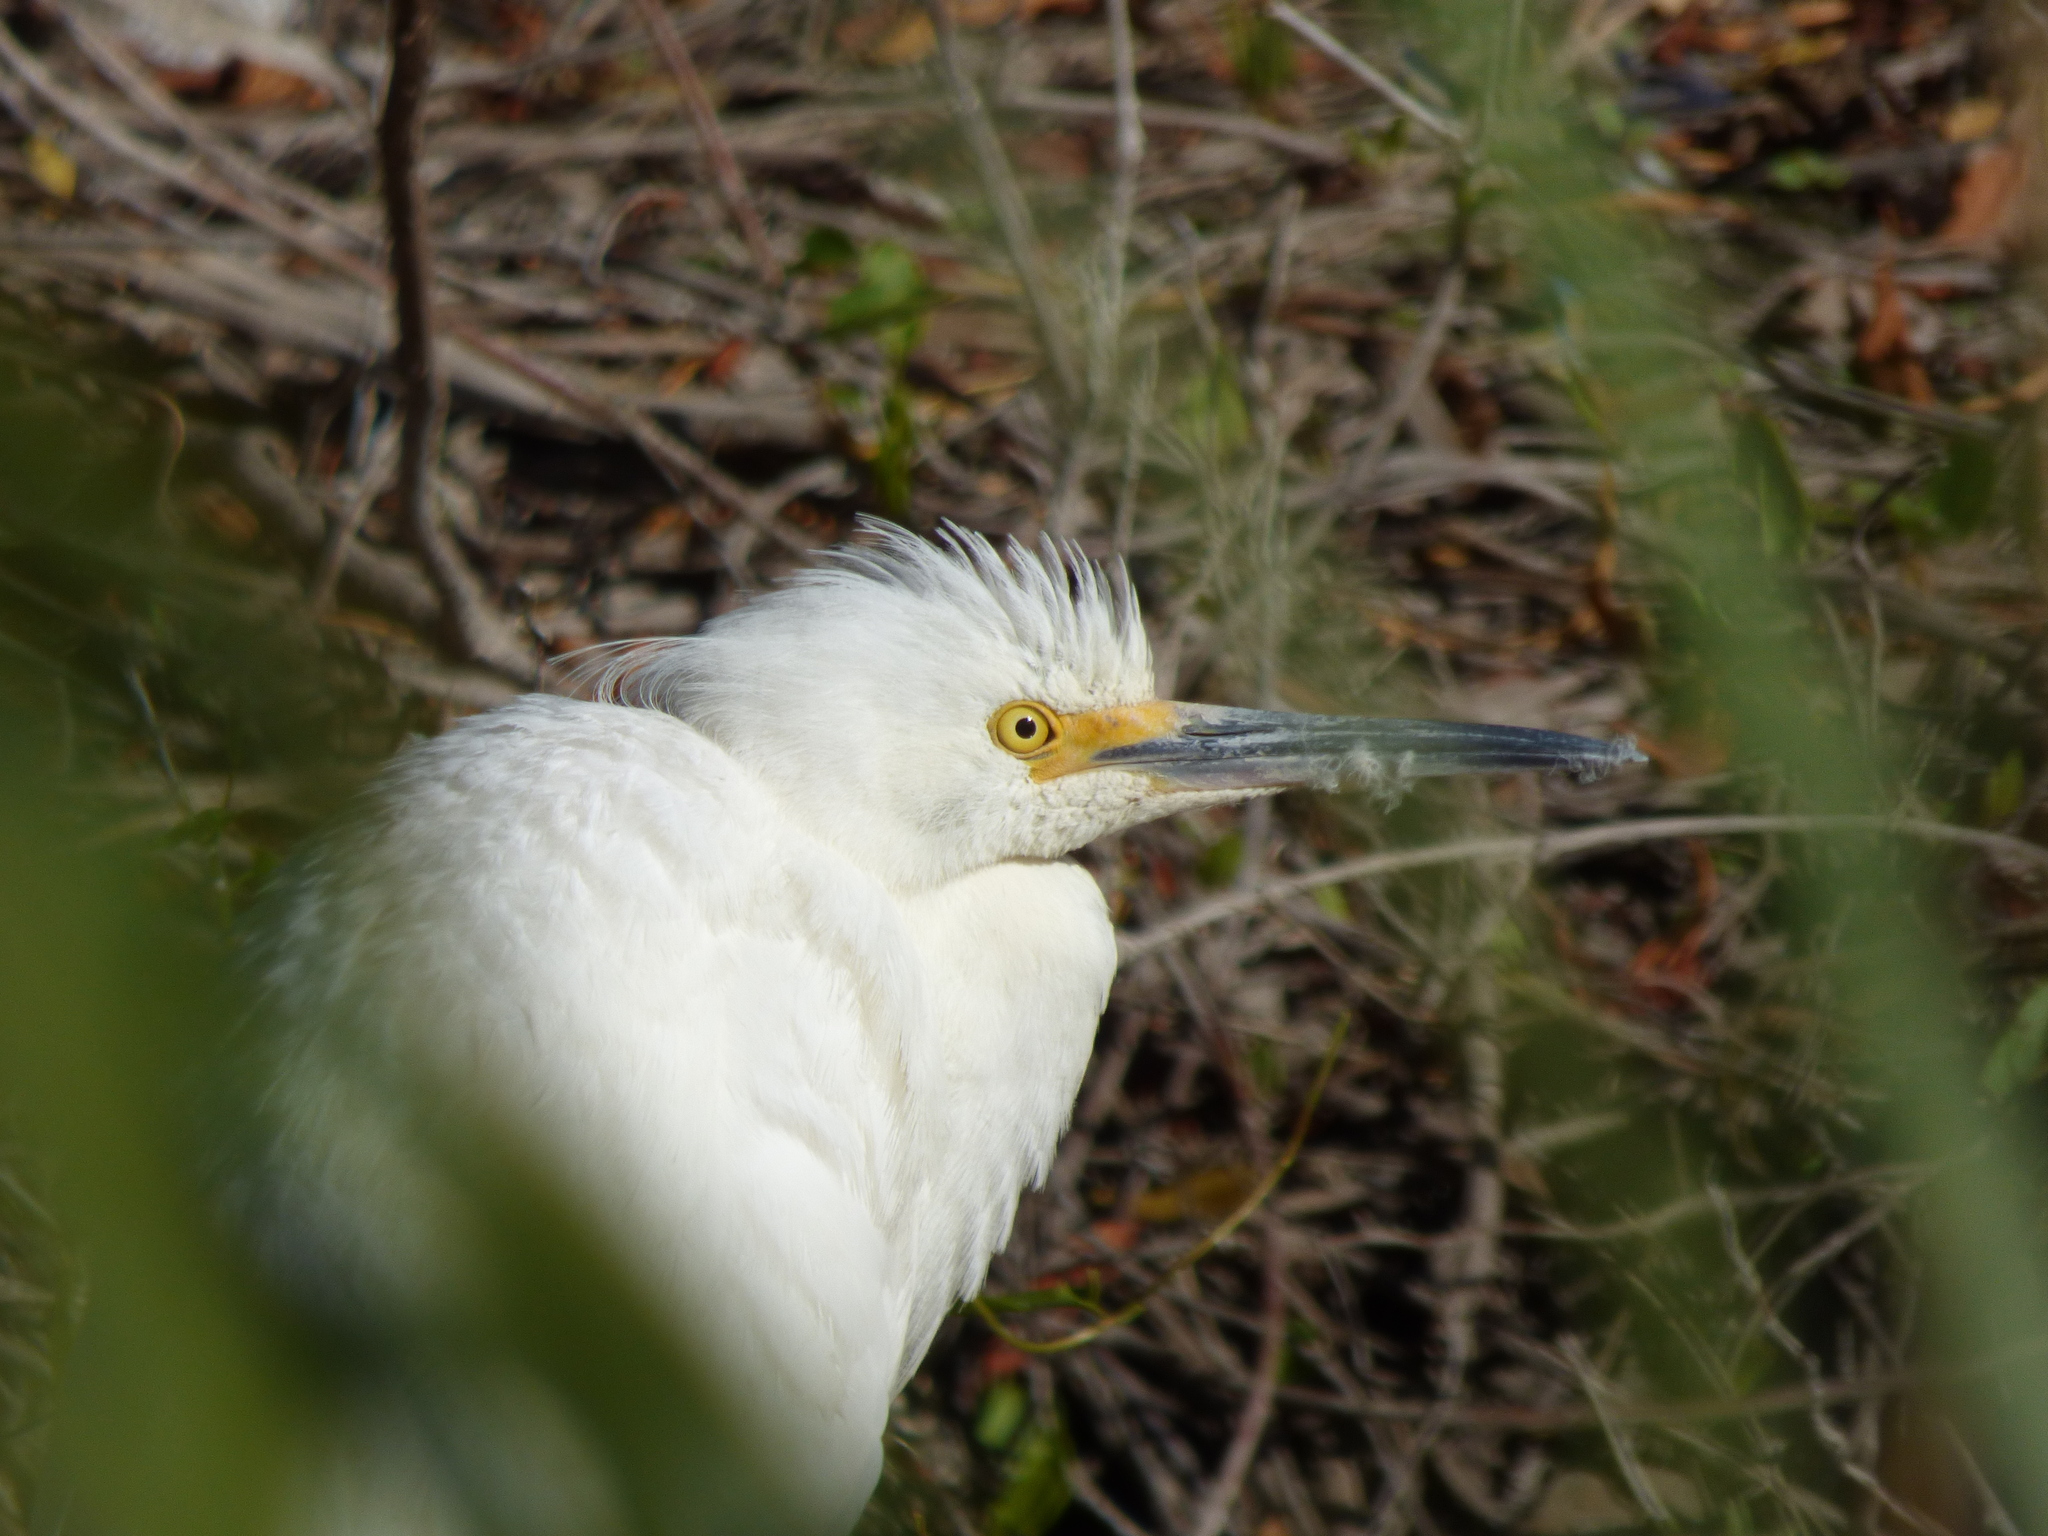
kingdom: Animalia
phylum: Chordata
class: Aves
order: Pelecaniformes
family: Ardeidae
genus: Egretta
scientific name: Egretta thula
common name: Snowy egret
